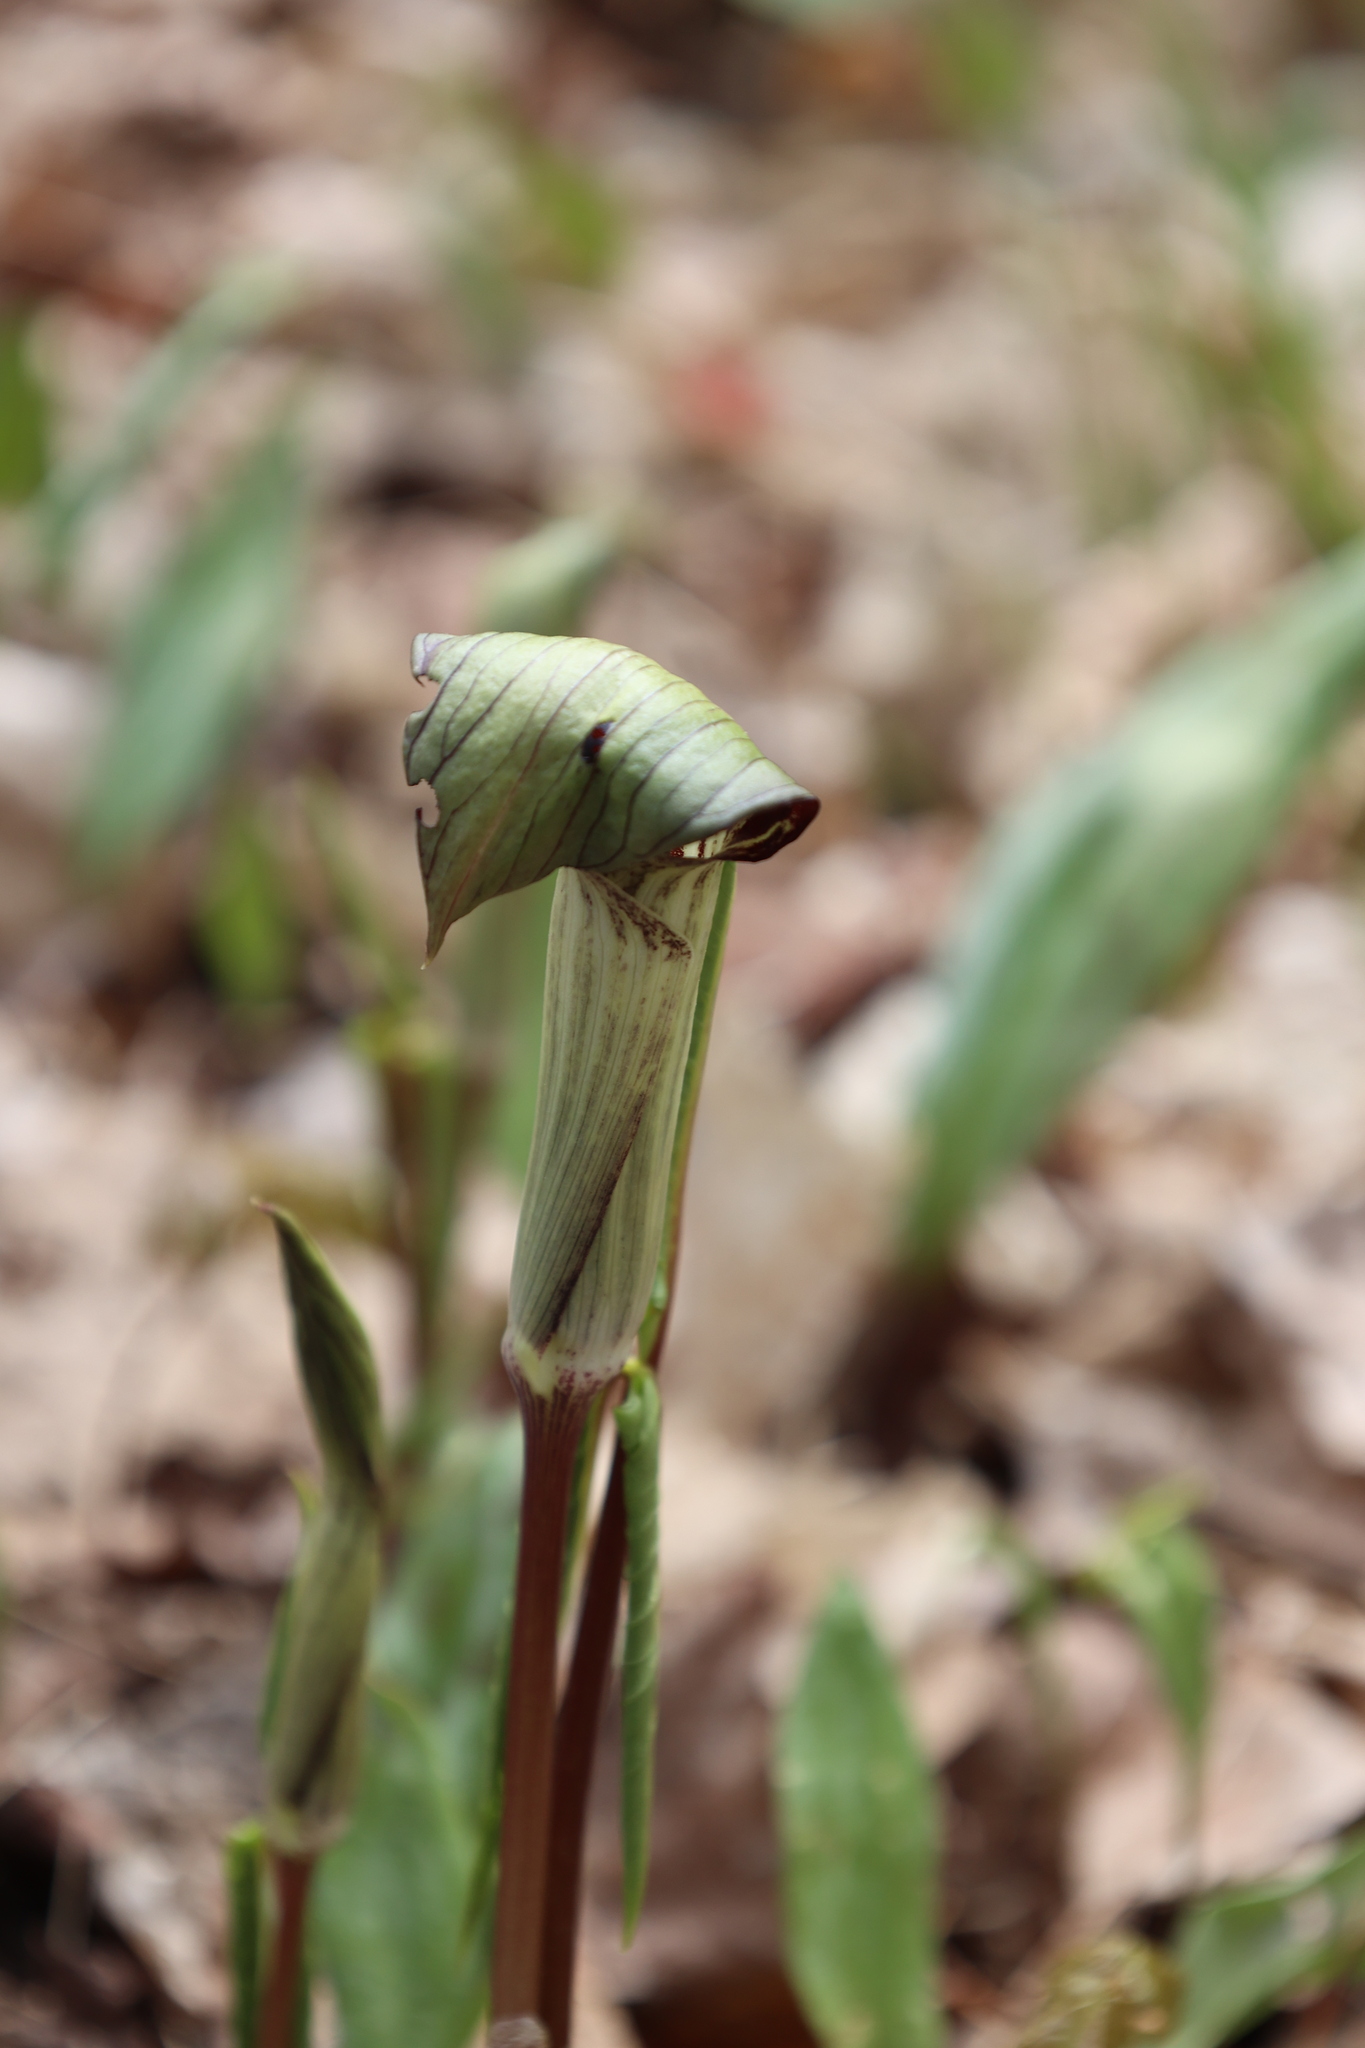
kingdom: Plantae
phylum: Tracheophyta
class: Liliopsida
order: Alismatales
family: Araceae
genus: Arisaema
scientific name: Arisaema triphyllum
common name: Jack-in-the-pulpit
